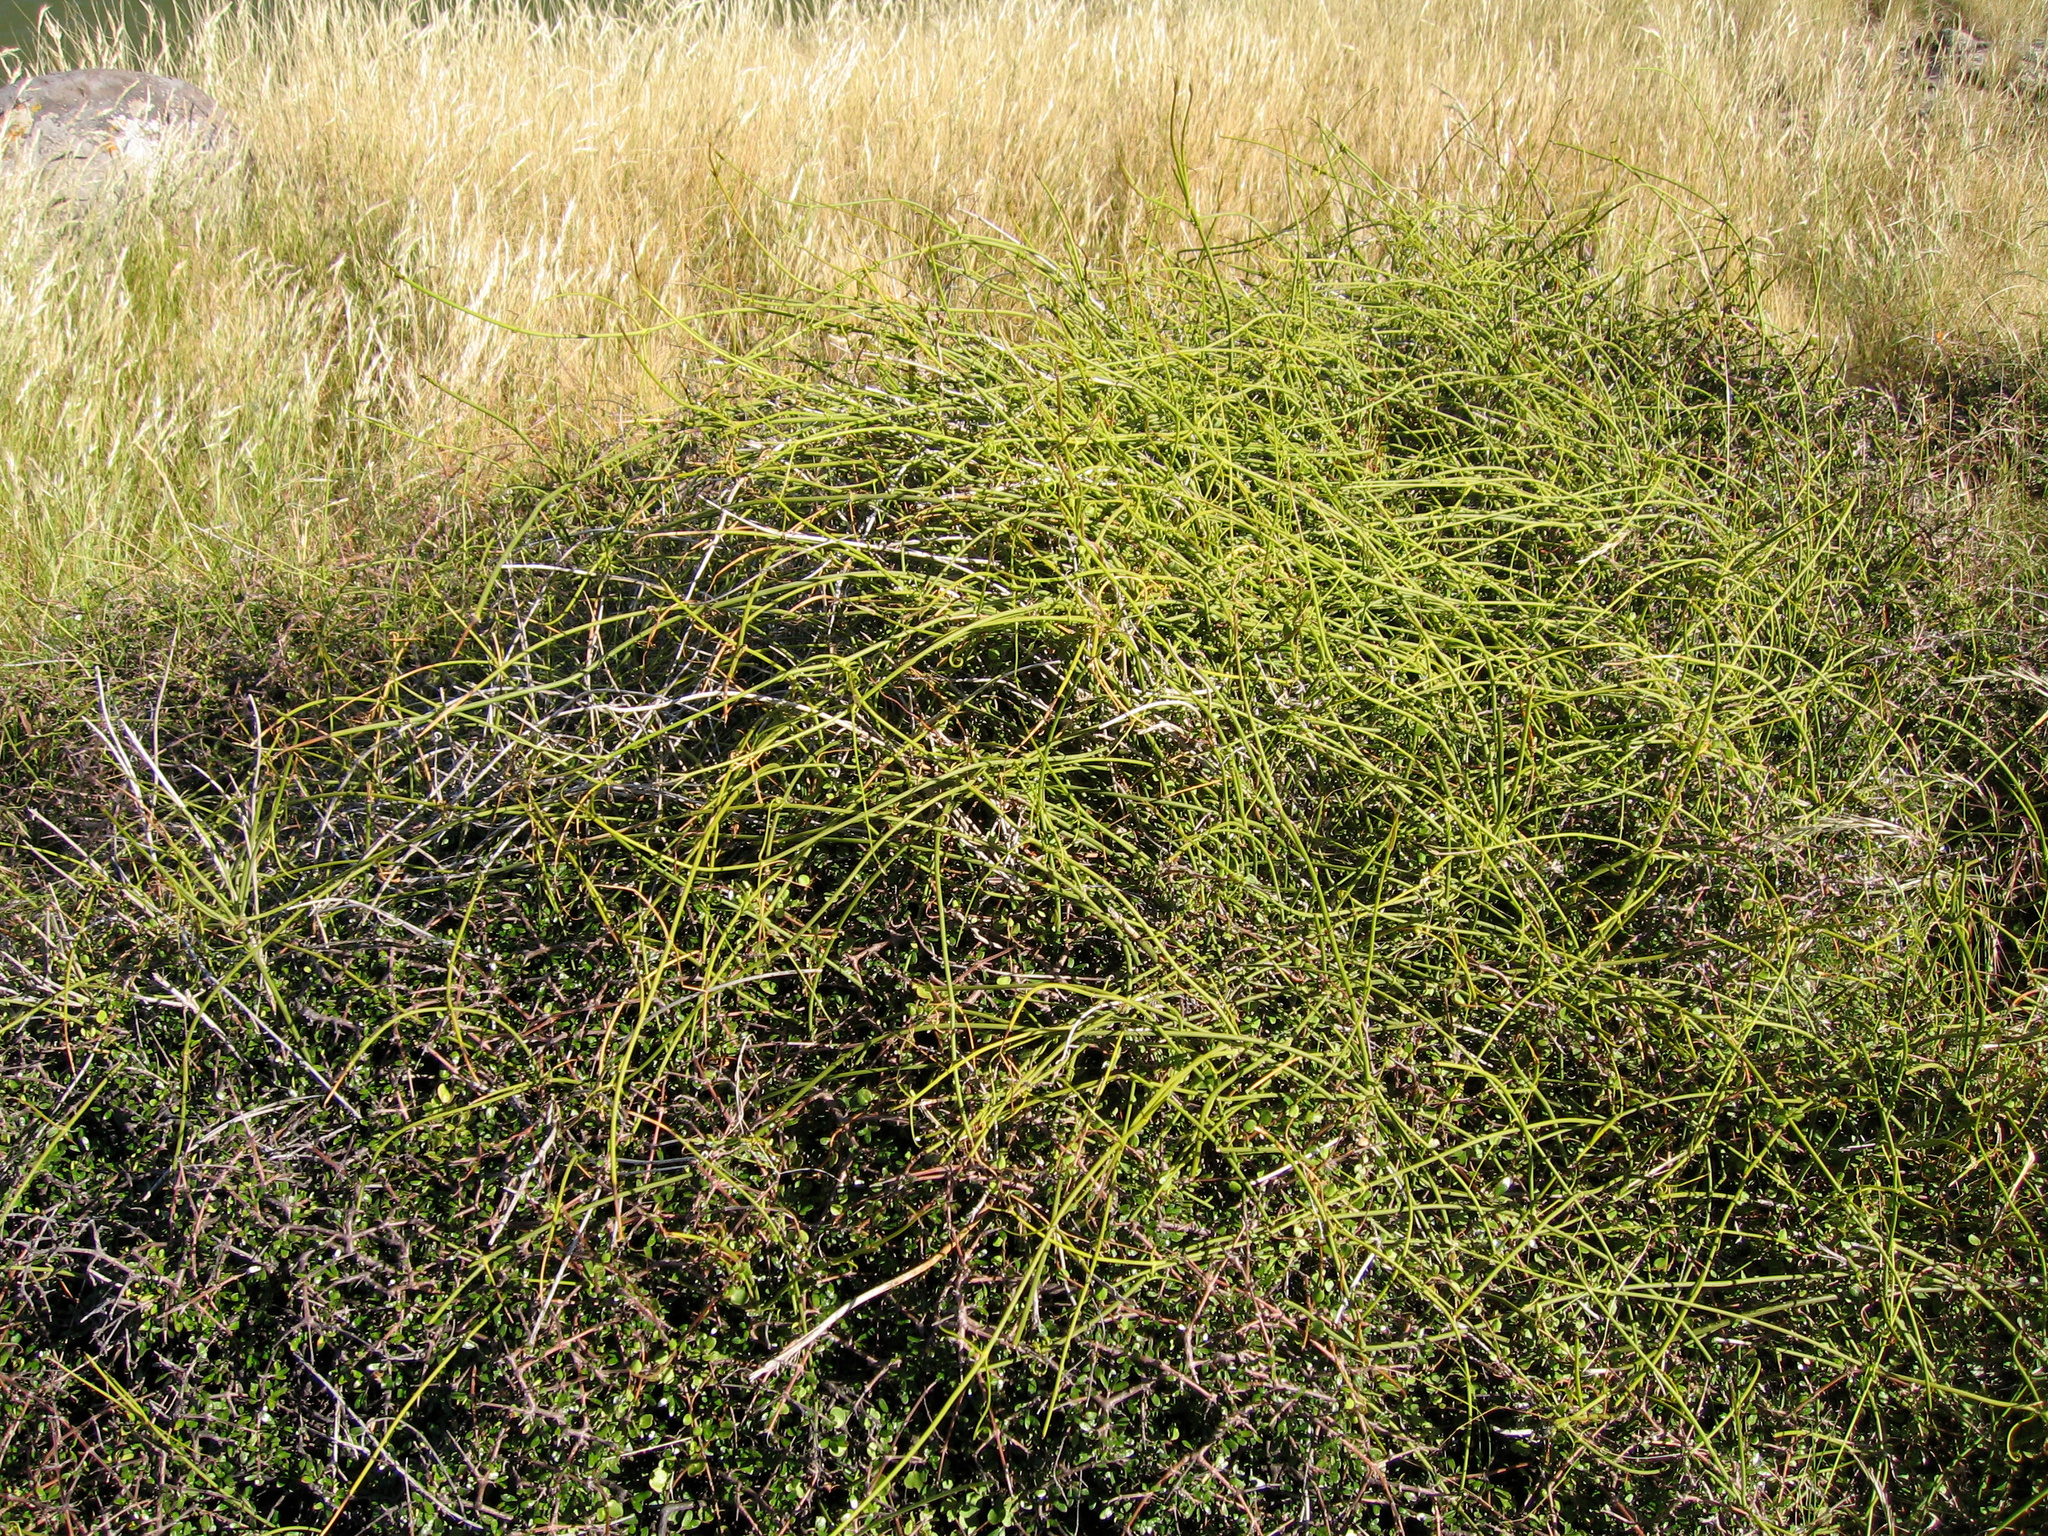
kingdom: Plantae
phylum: Tracheophyta
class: Magnoliopsida
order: Ranunculales
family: Ranunculaceae
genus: Clematis
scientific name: Clematis afoliata
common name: Rush-stem clematis
